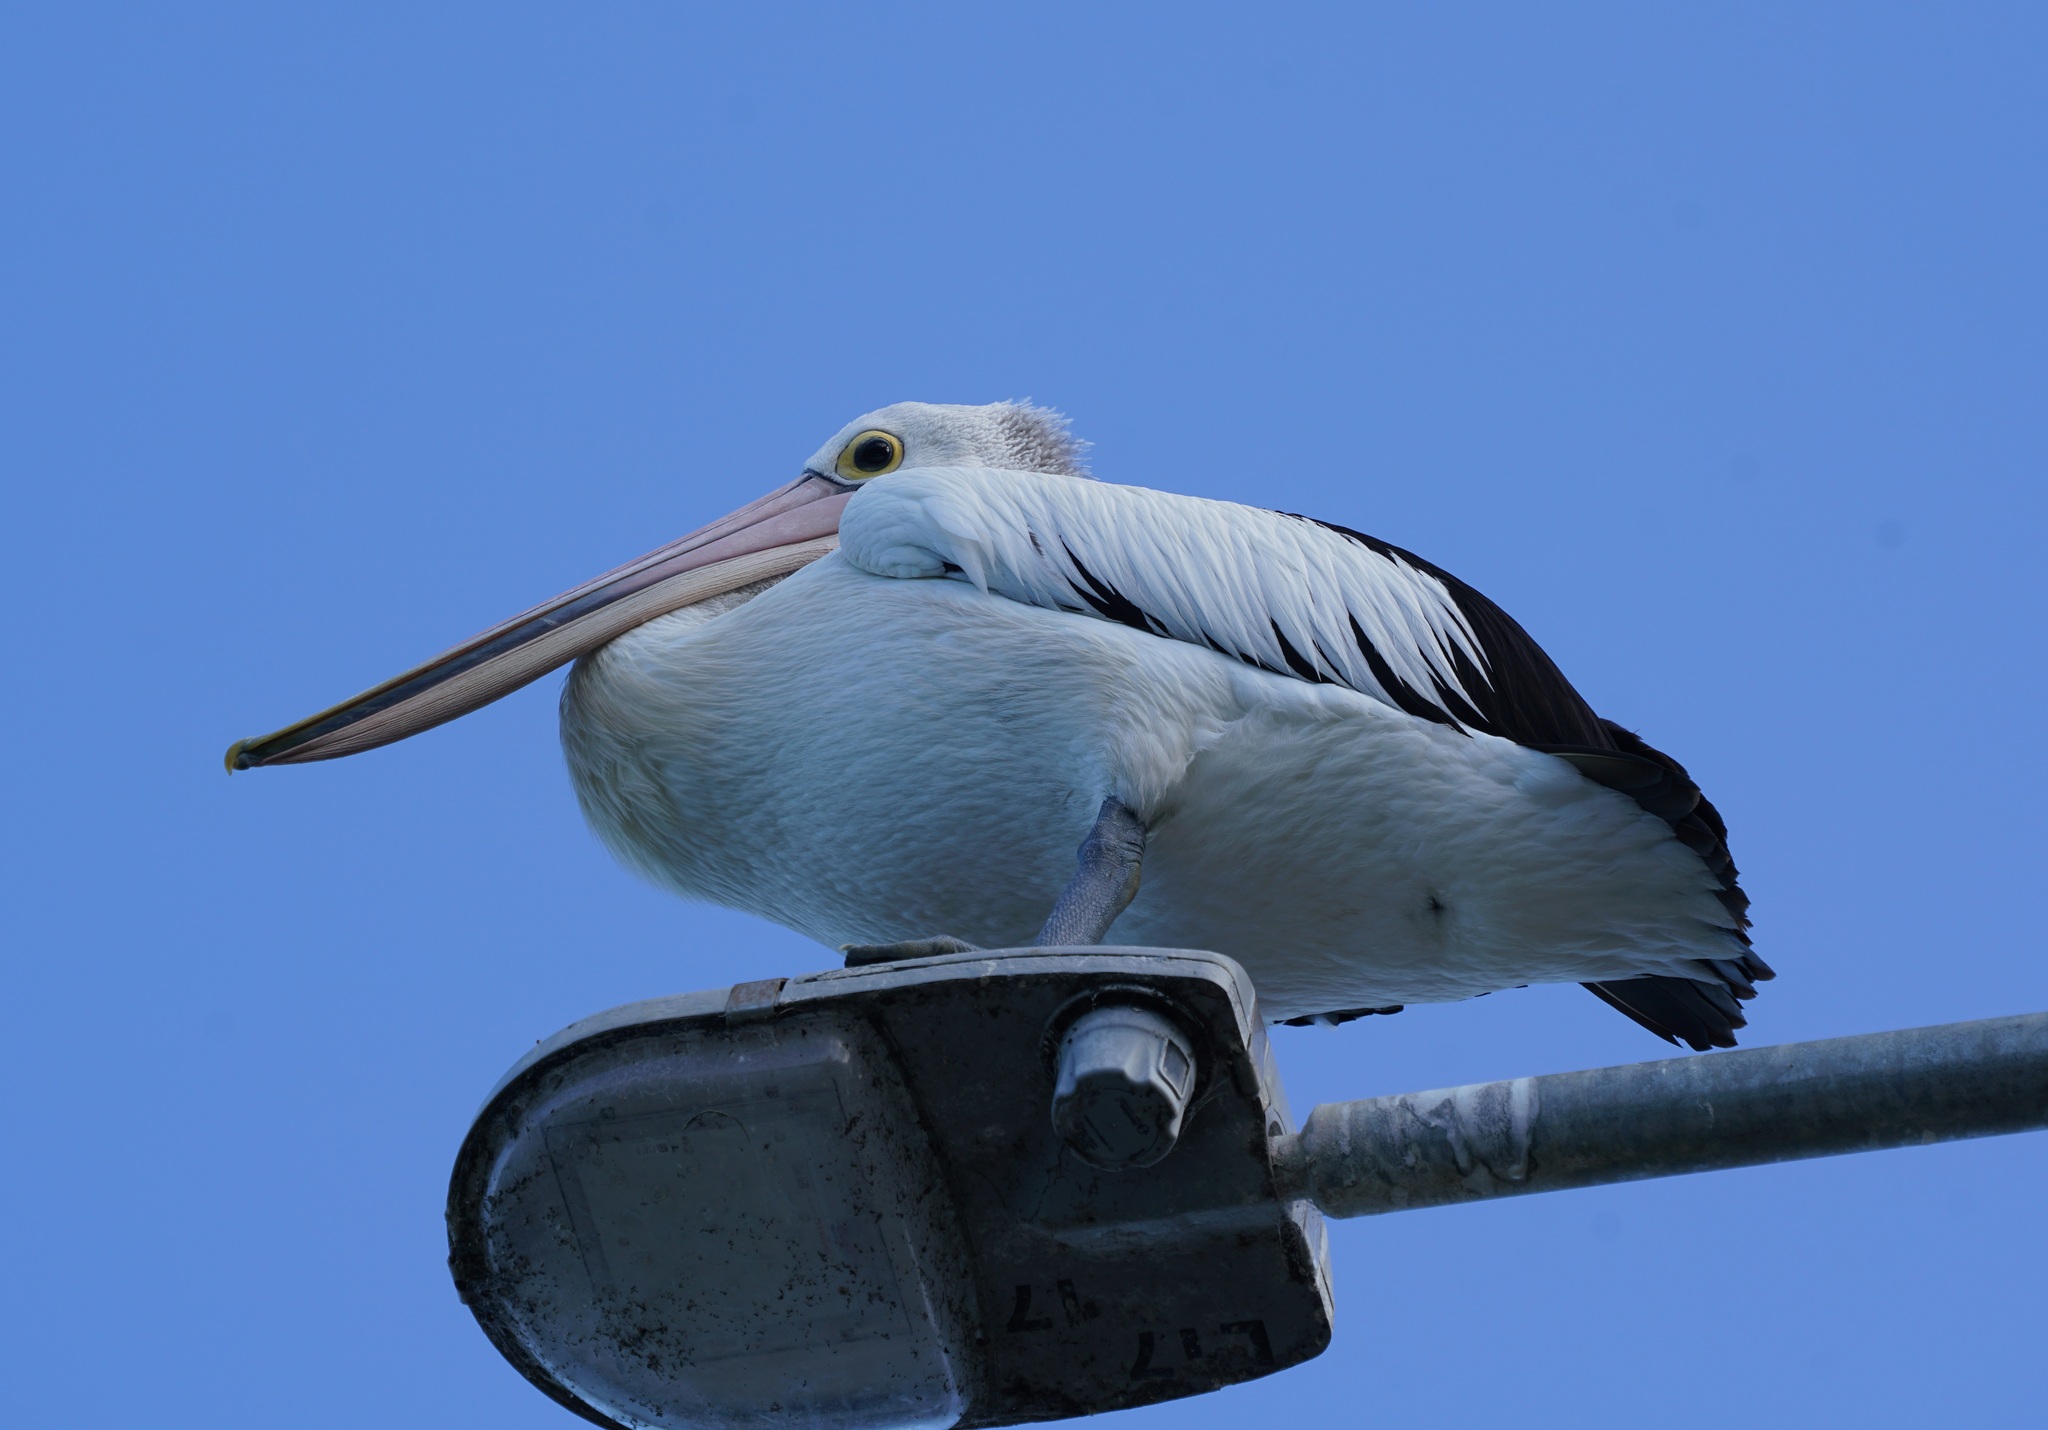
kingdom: Animalia
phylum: Chordata
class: Aves
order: Pelecaniformes
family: Pelecanidae
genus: Pelecanus
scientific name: Pelecanus conspicillatus
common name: Australian pelican
